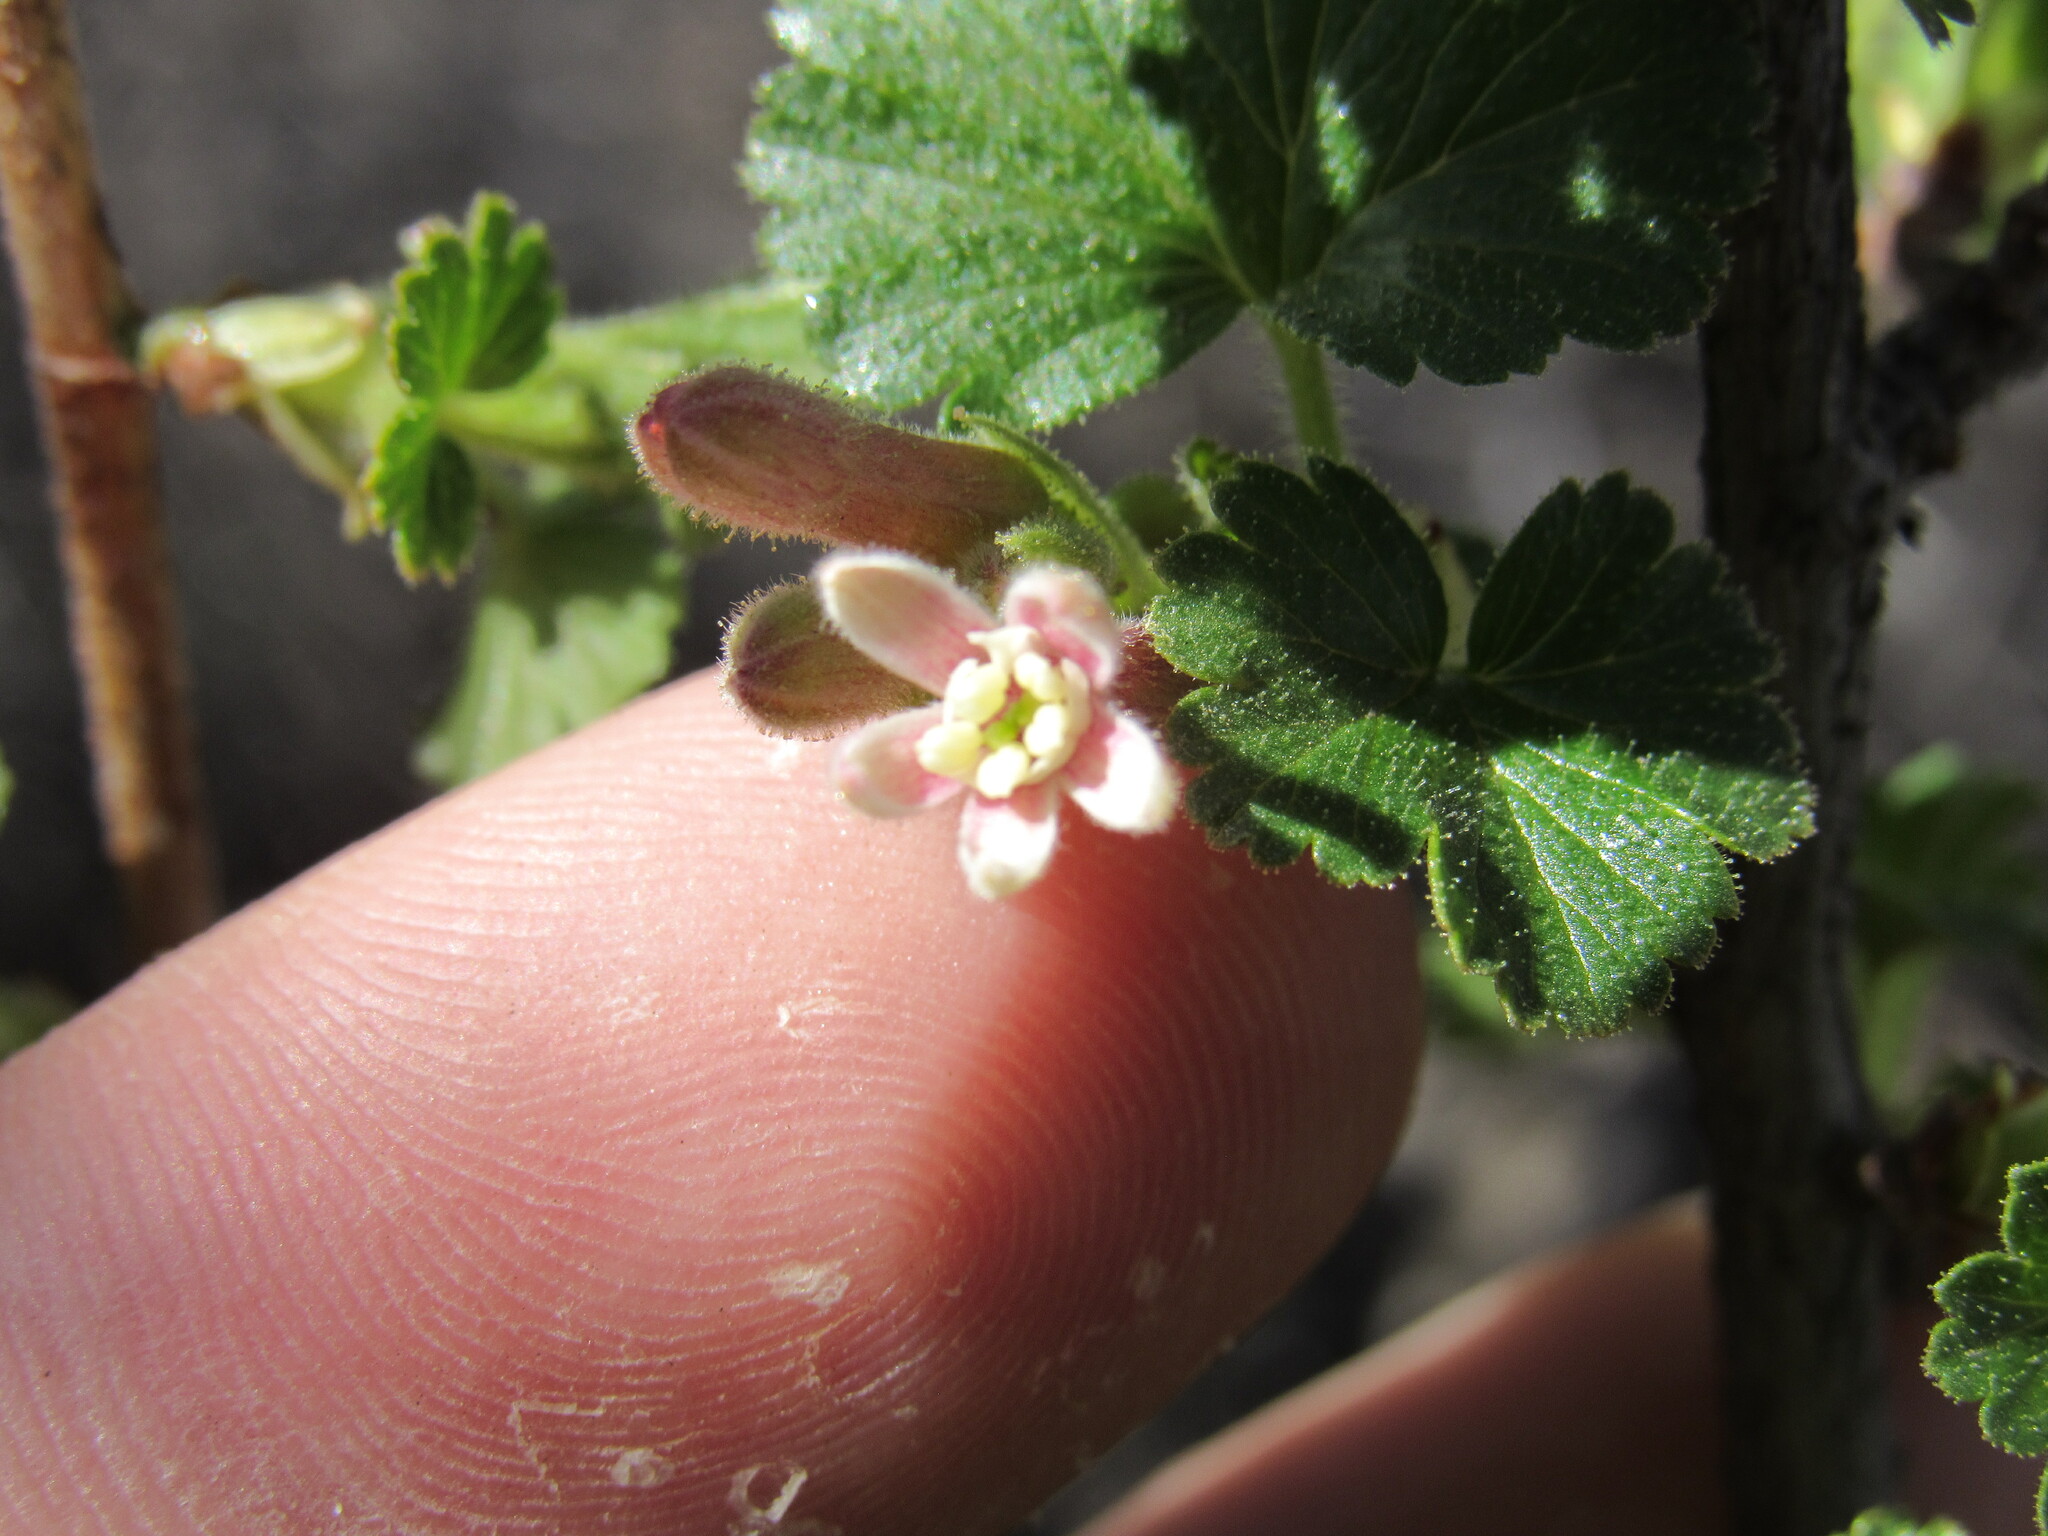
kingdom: Plantae
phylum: Tracheophyta
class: Magnoliopsida
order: Saxifragales
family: Grossulariaceae
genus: Ribes
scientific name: Ribes cereum
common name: Wax currant
